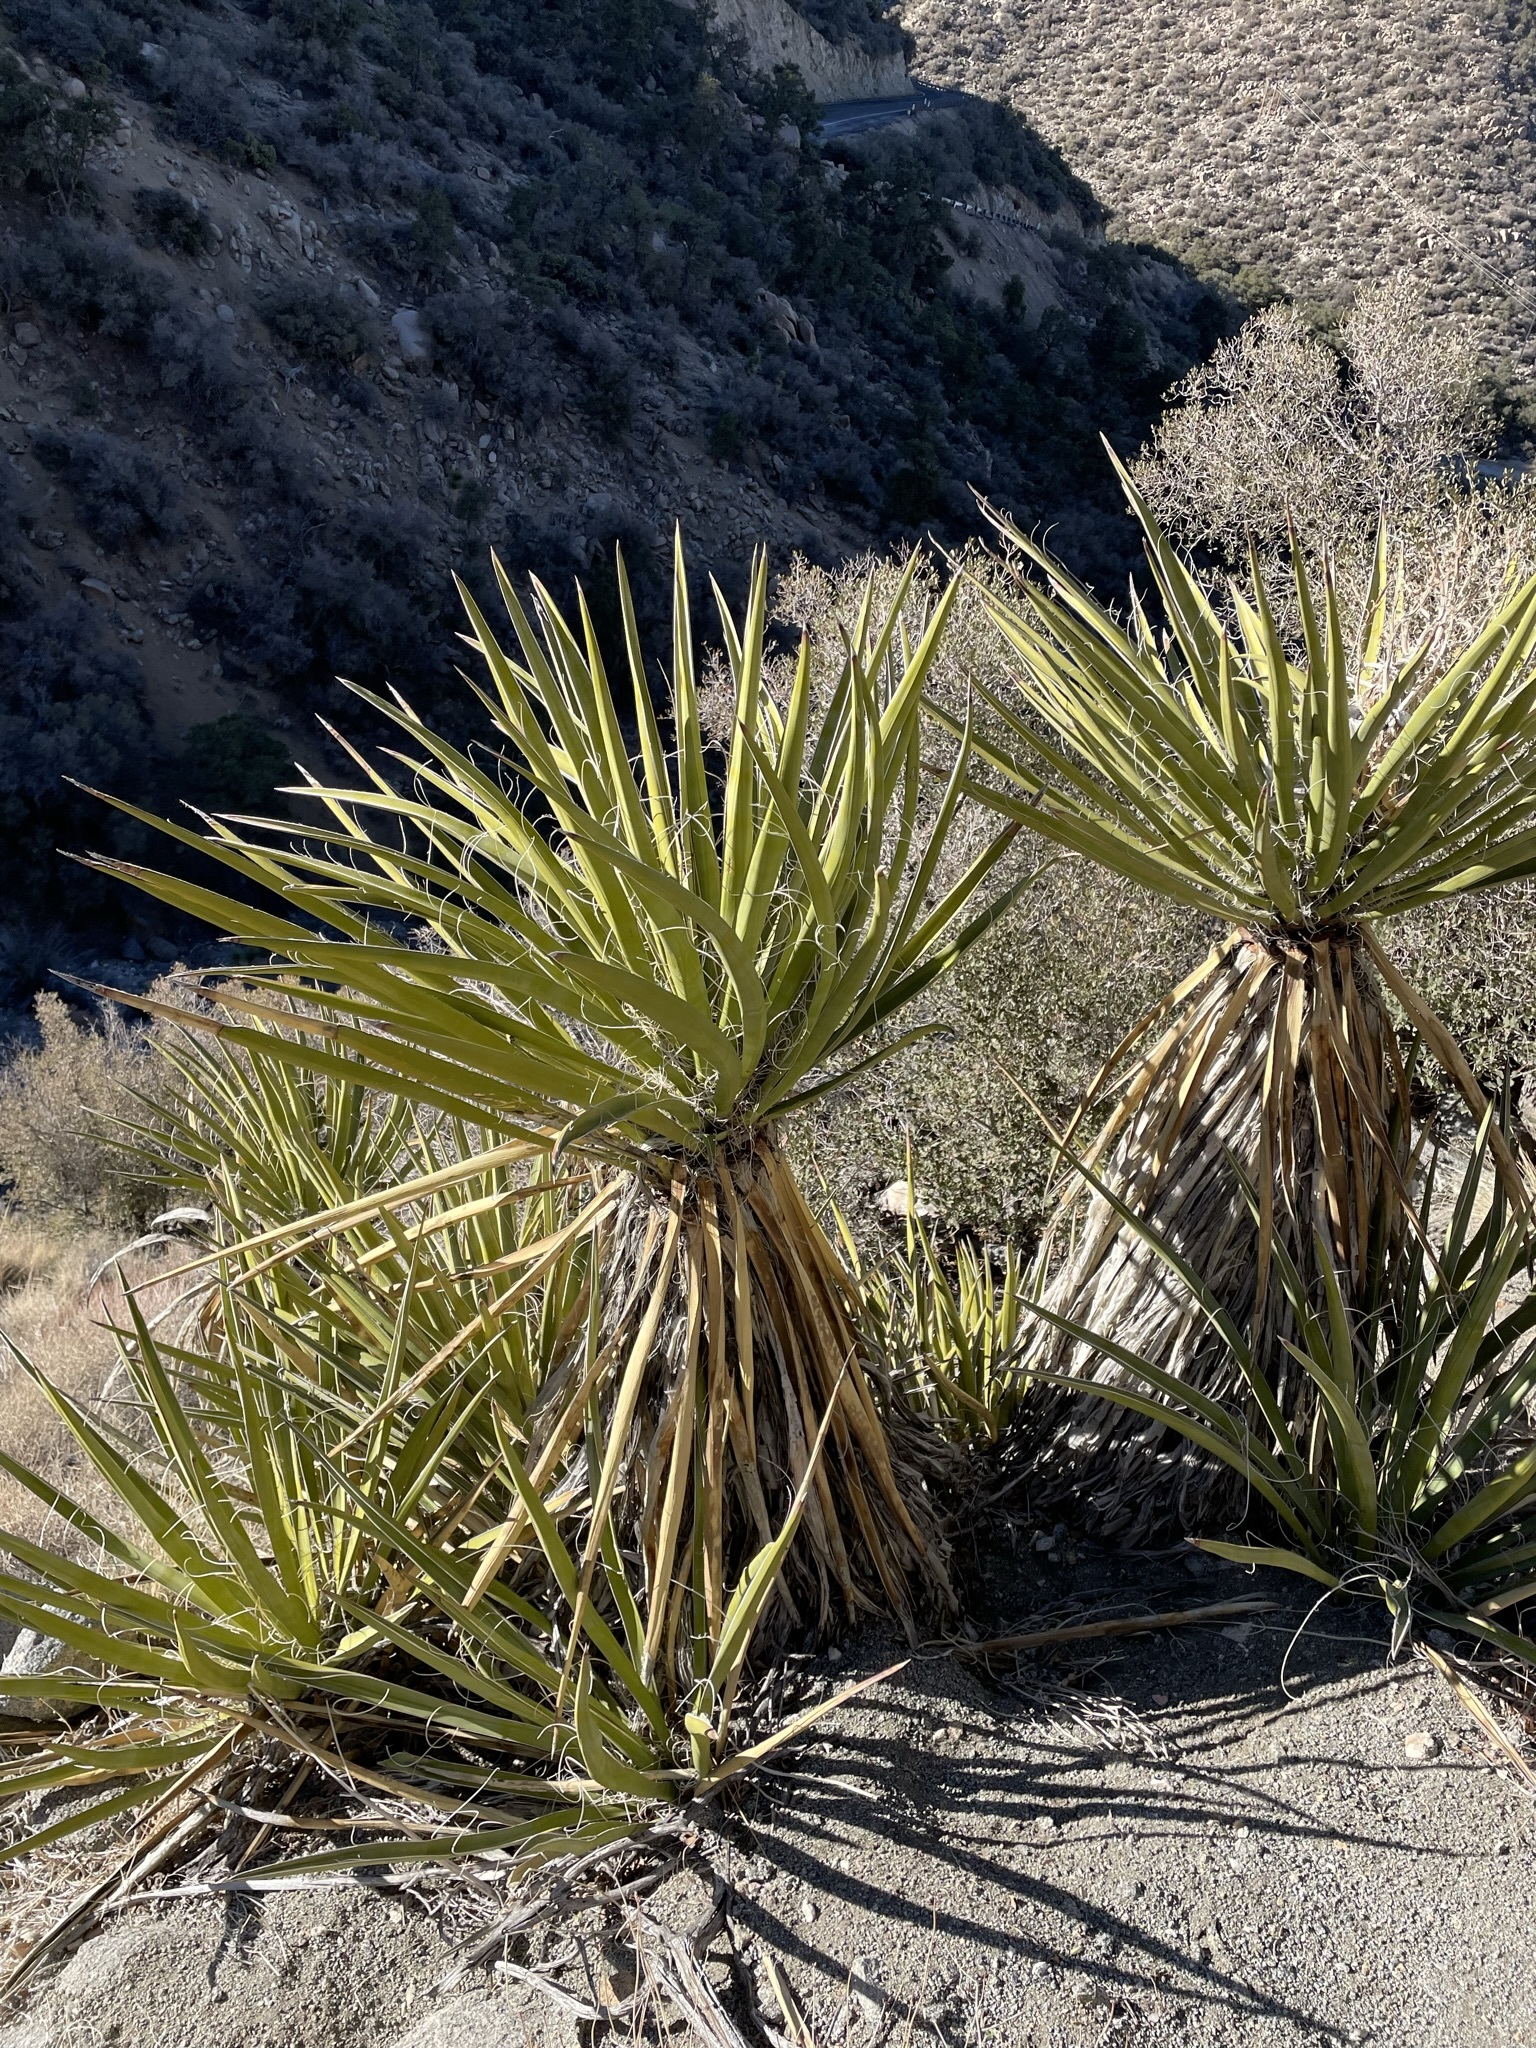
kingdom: Plantae
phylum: Tracheophyta
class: Liliopsida
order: Asparagales
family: Asparagaceae
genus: Yucca
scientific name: Yucca schidigera
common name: Mojave yucca
